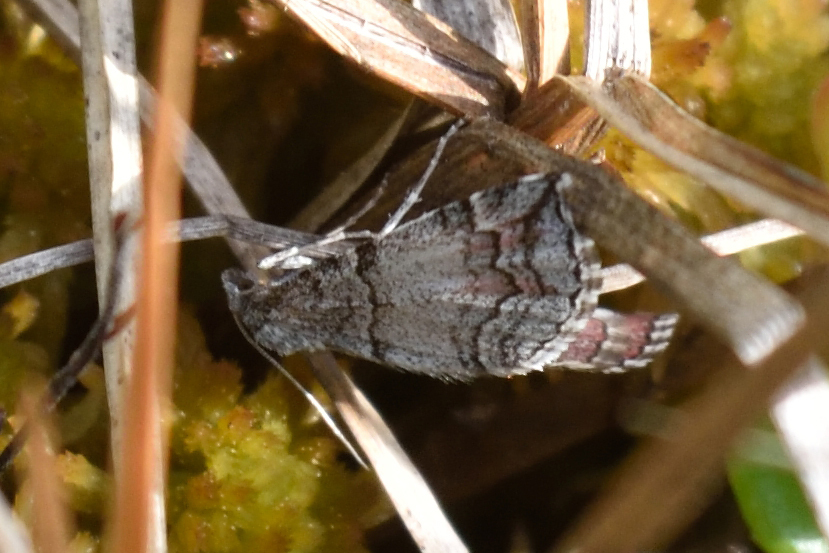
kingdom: Animalia
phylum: Arthropoda
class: Insecta
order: Lepidoptera
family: Geometridae
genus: Carsia
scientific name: Carsia sororiata
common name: Manchester treble-bar
